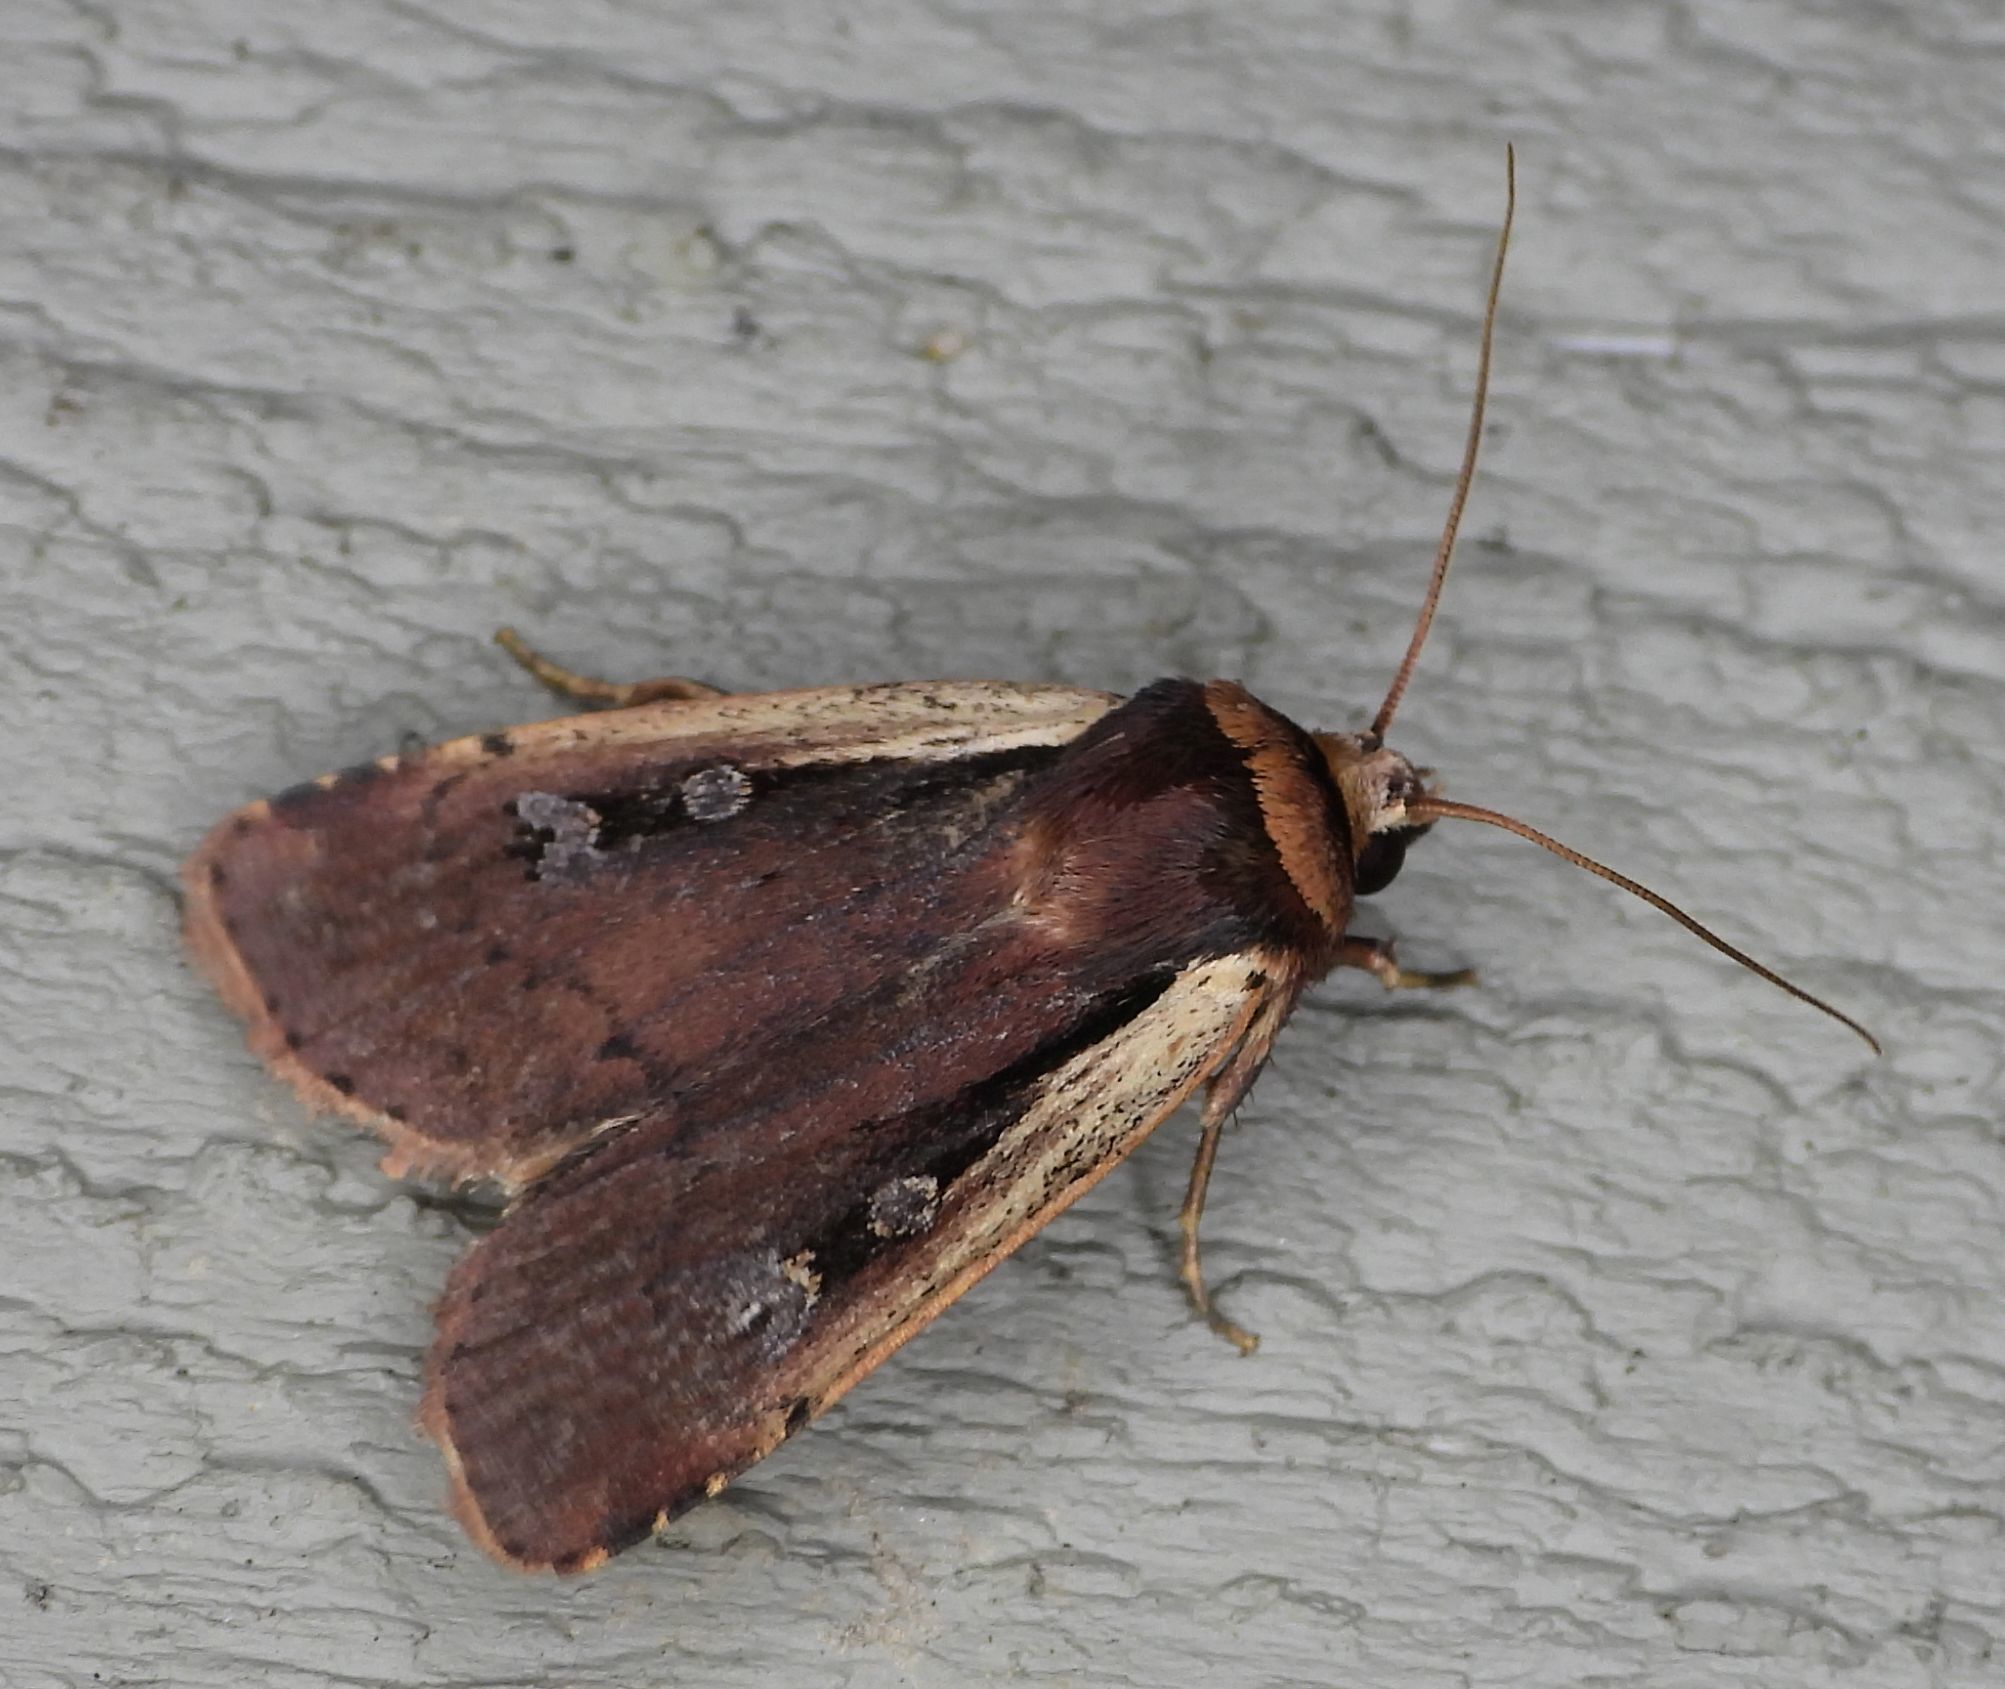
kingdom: Animalia
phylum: Arthropoda
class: Insecta
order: Lepidoptera
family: Noctuidae
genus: Ochropleura
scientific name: Ochropleura implecta
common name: Flame-shouldered dart
